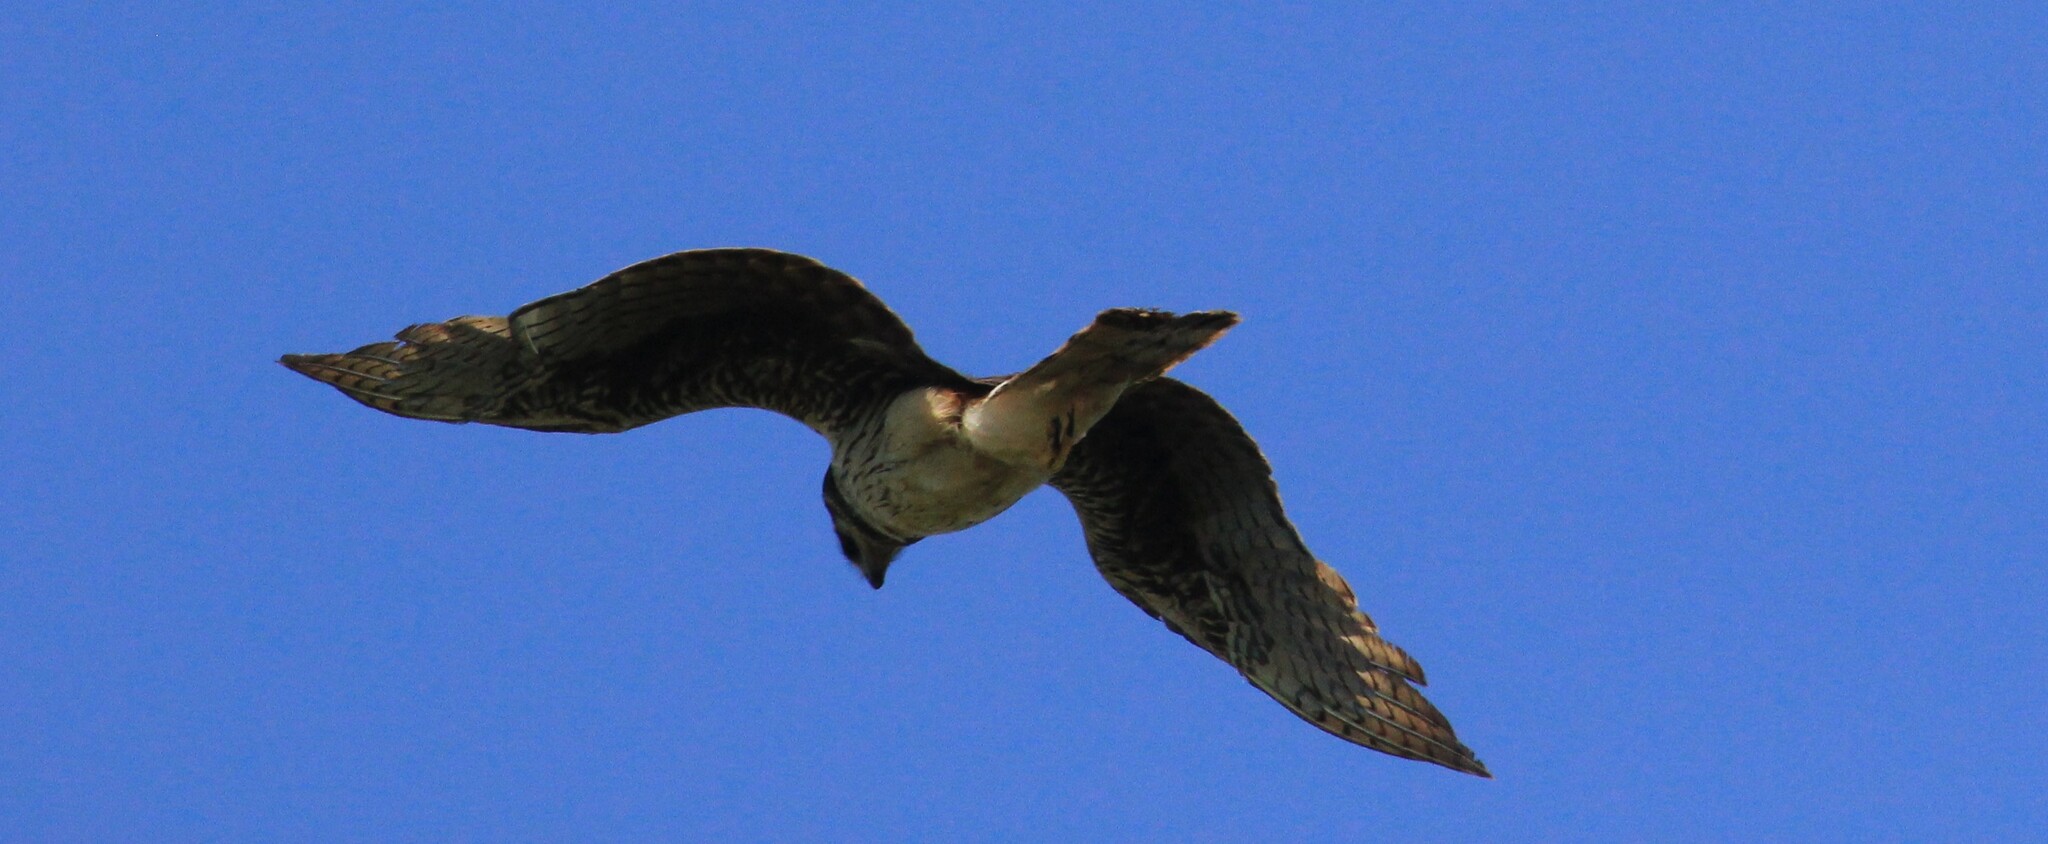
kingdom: Animalia
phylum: Chordata
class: Aves
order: Accipitriformes
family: Accipitridae
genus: Circus
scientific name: Circus buffoni
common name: Long-winged harrier
